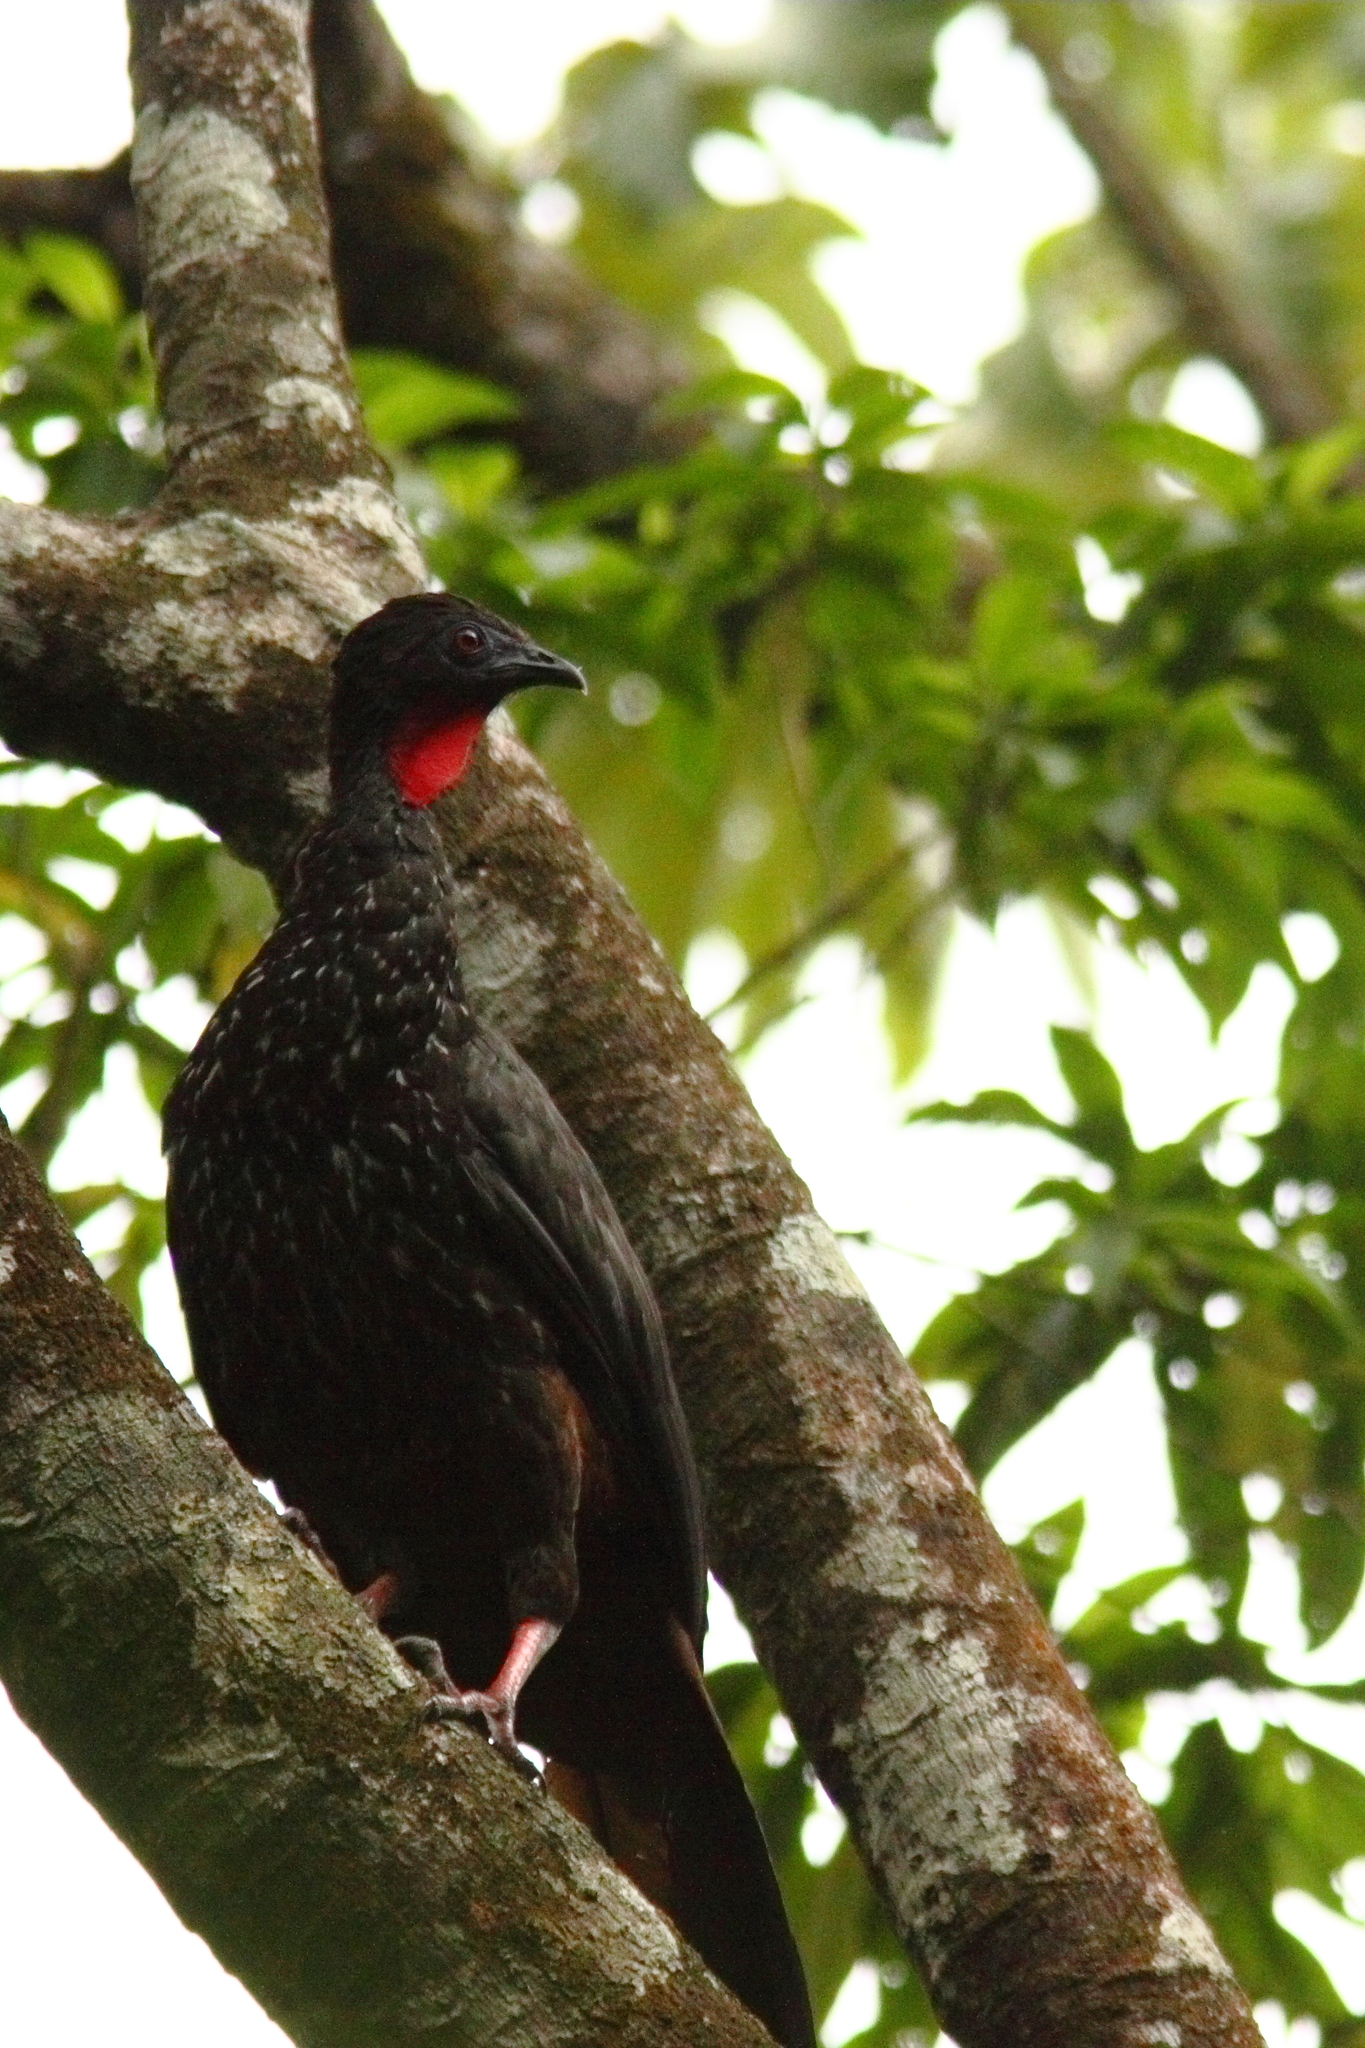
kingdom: Animalia
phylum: Chordata
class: Aves
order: Galliformes
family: Cracidae
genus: Penelope
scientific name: Penelope purpurascens
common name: Crested guan
